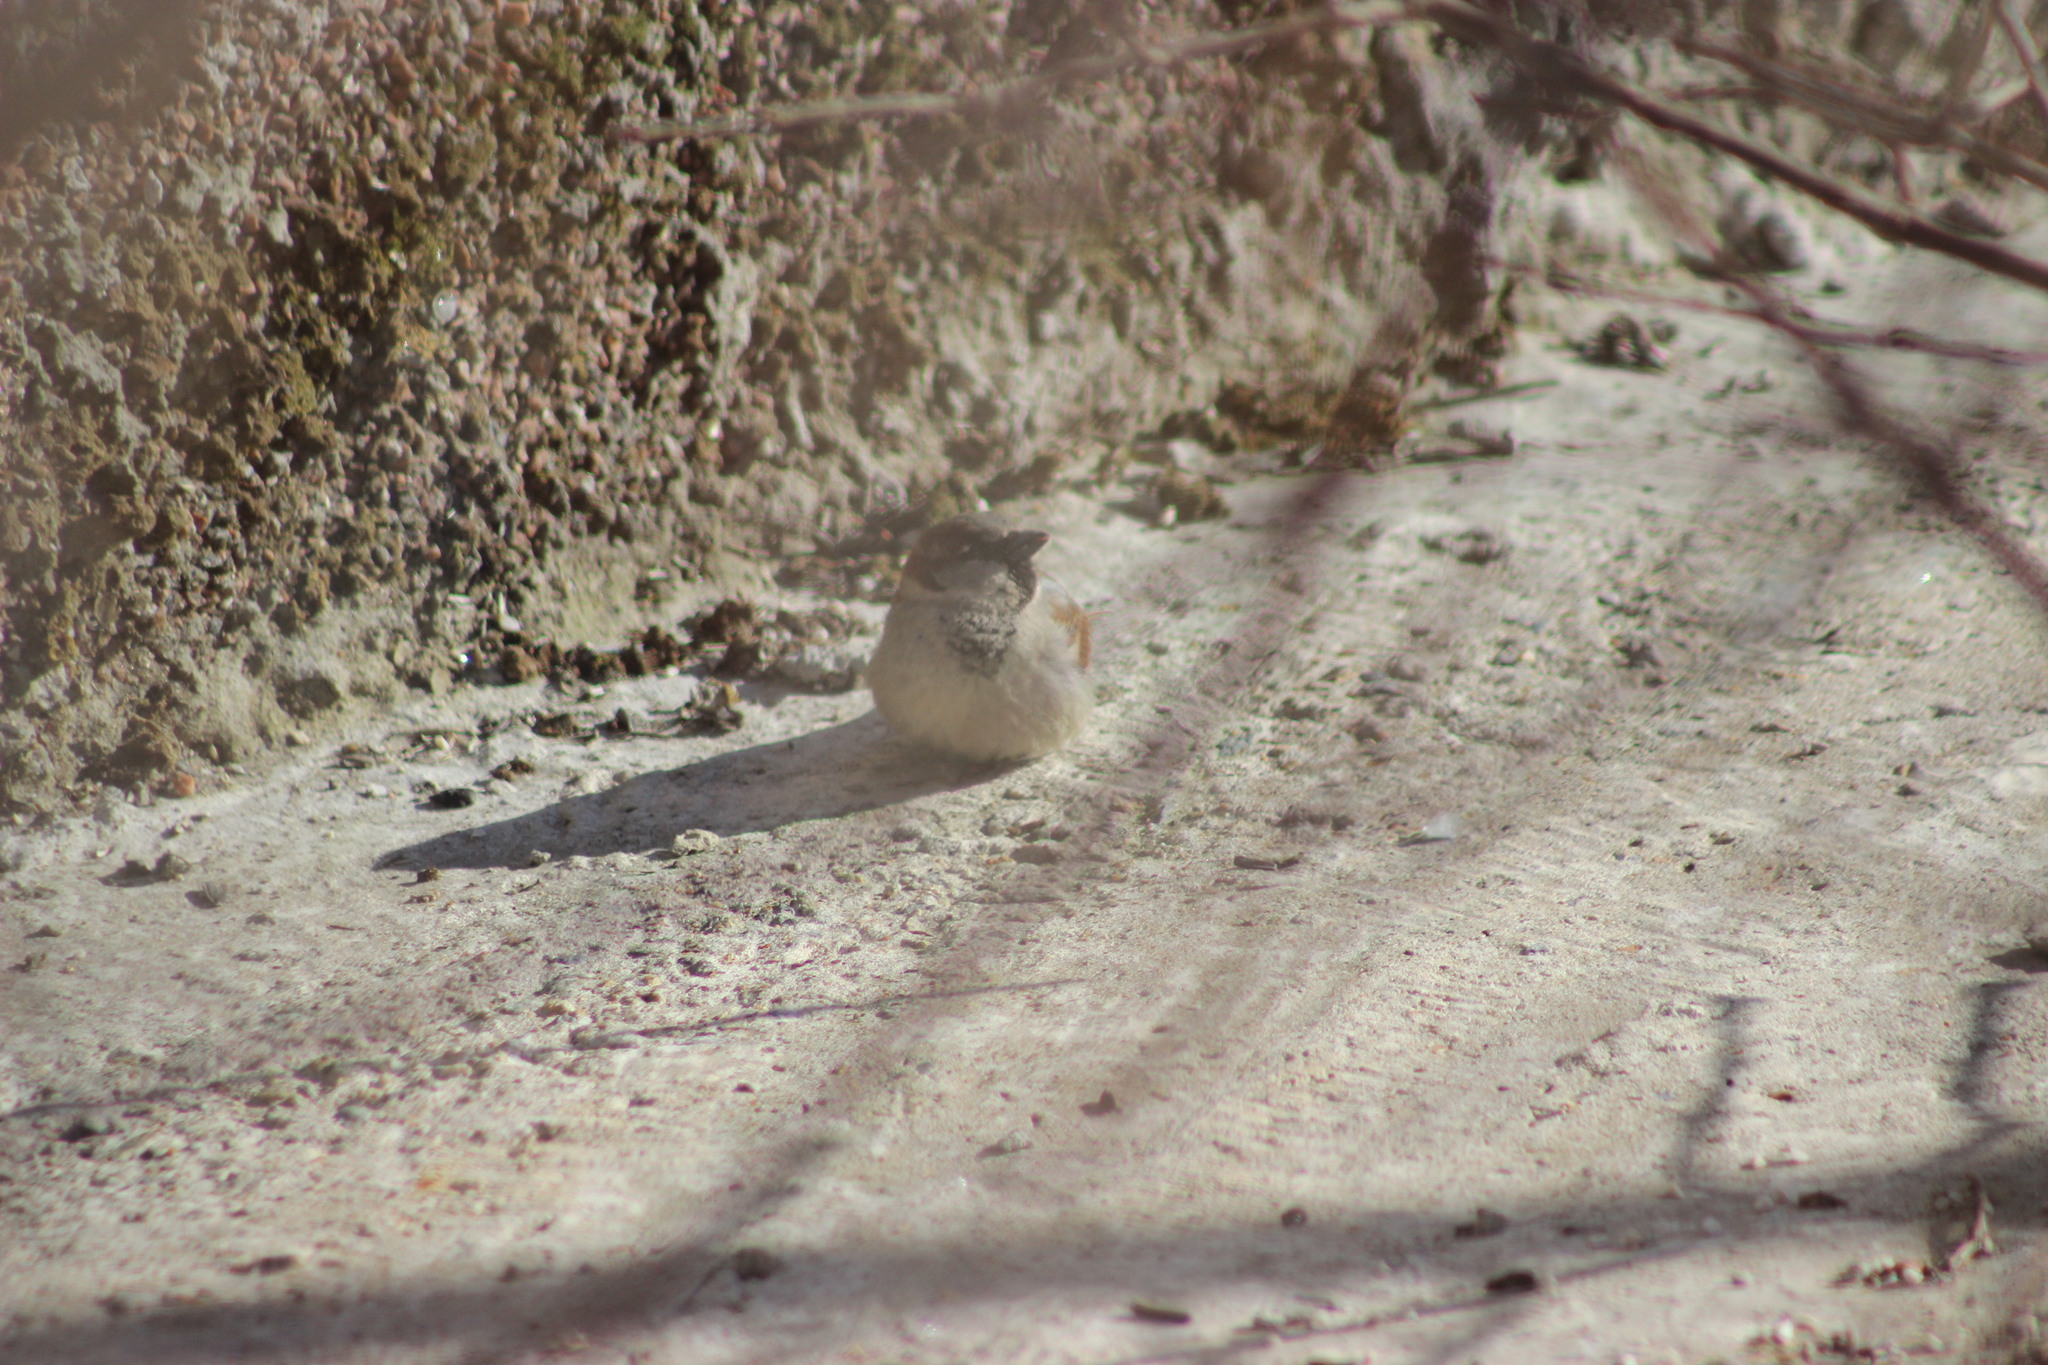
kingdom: Animalia
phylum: Chordata
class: Aves
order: Passeriformes
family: Passeridae
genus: Passer
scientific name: Passer domesticus
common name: House sparrow
